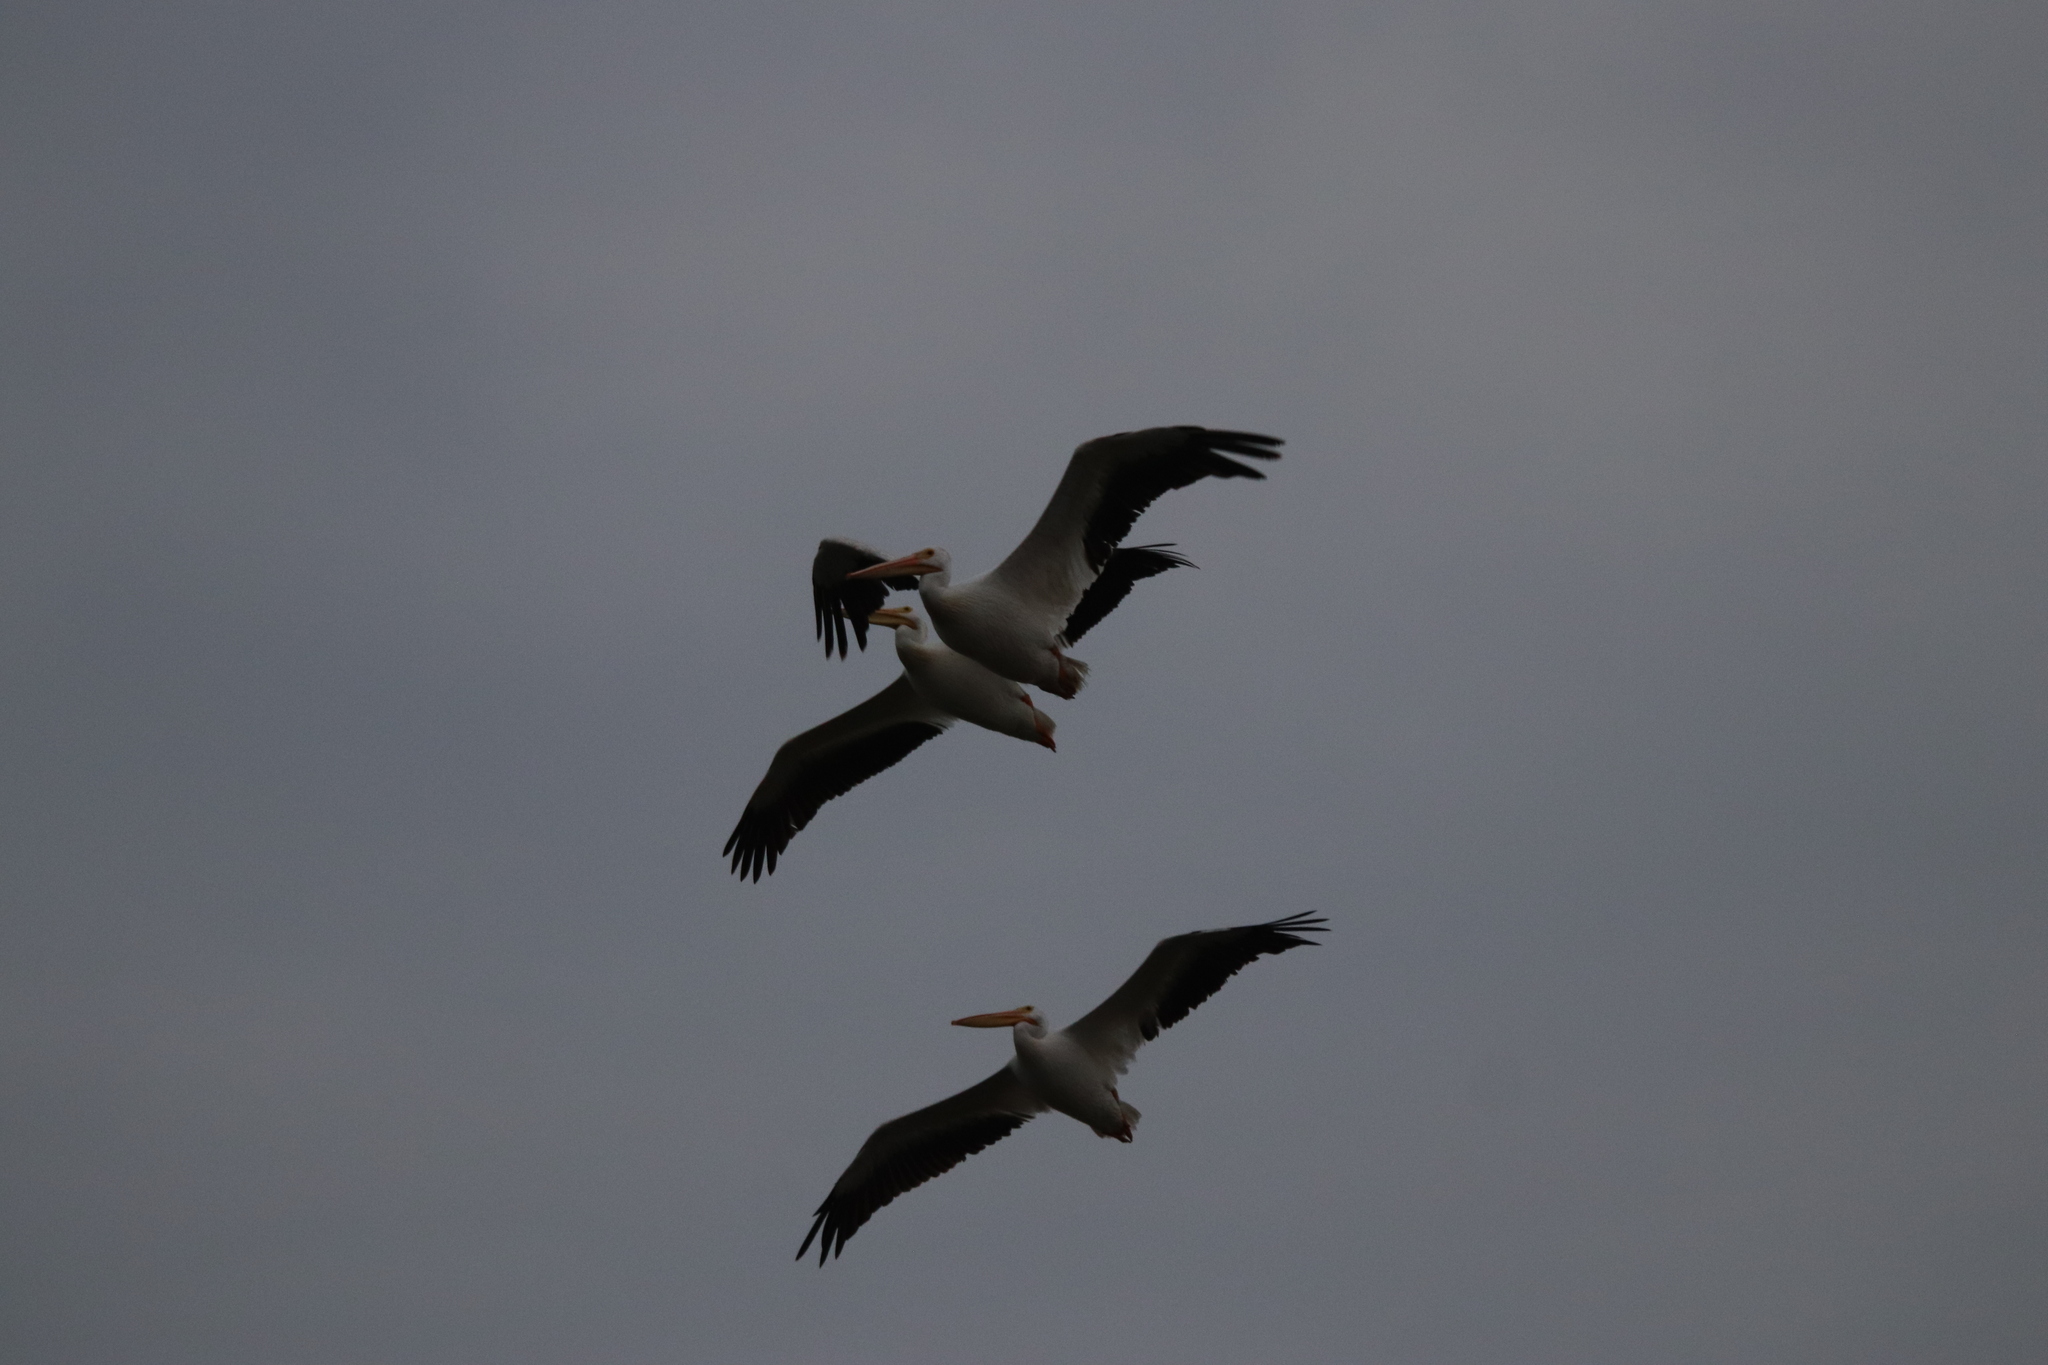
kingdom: Animalia
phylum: Chordata
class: Aves
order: Pelecaniformes
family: Pelecanidae
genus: Pelecanus
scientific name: Pelecanus erythrorhynchos
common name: American white pelican
